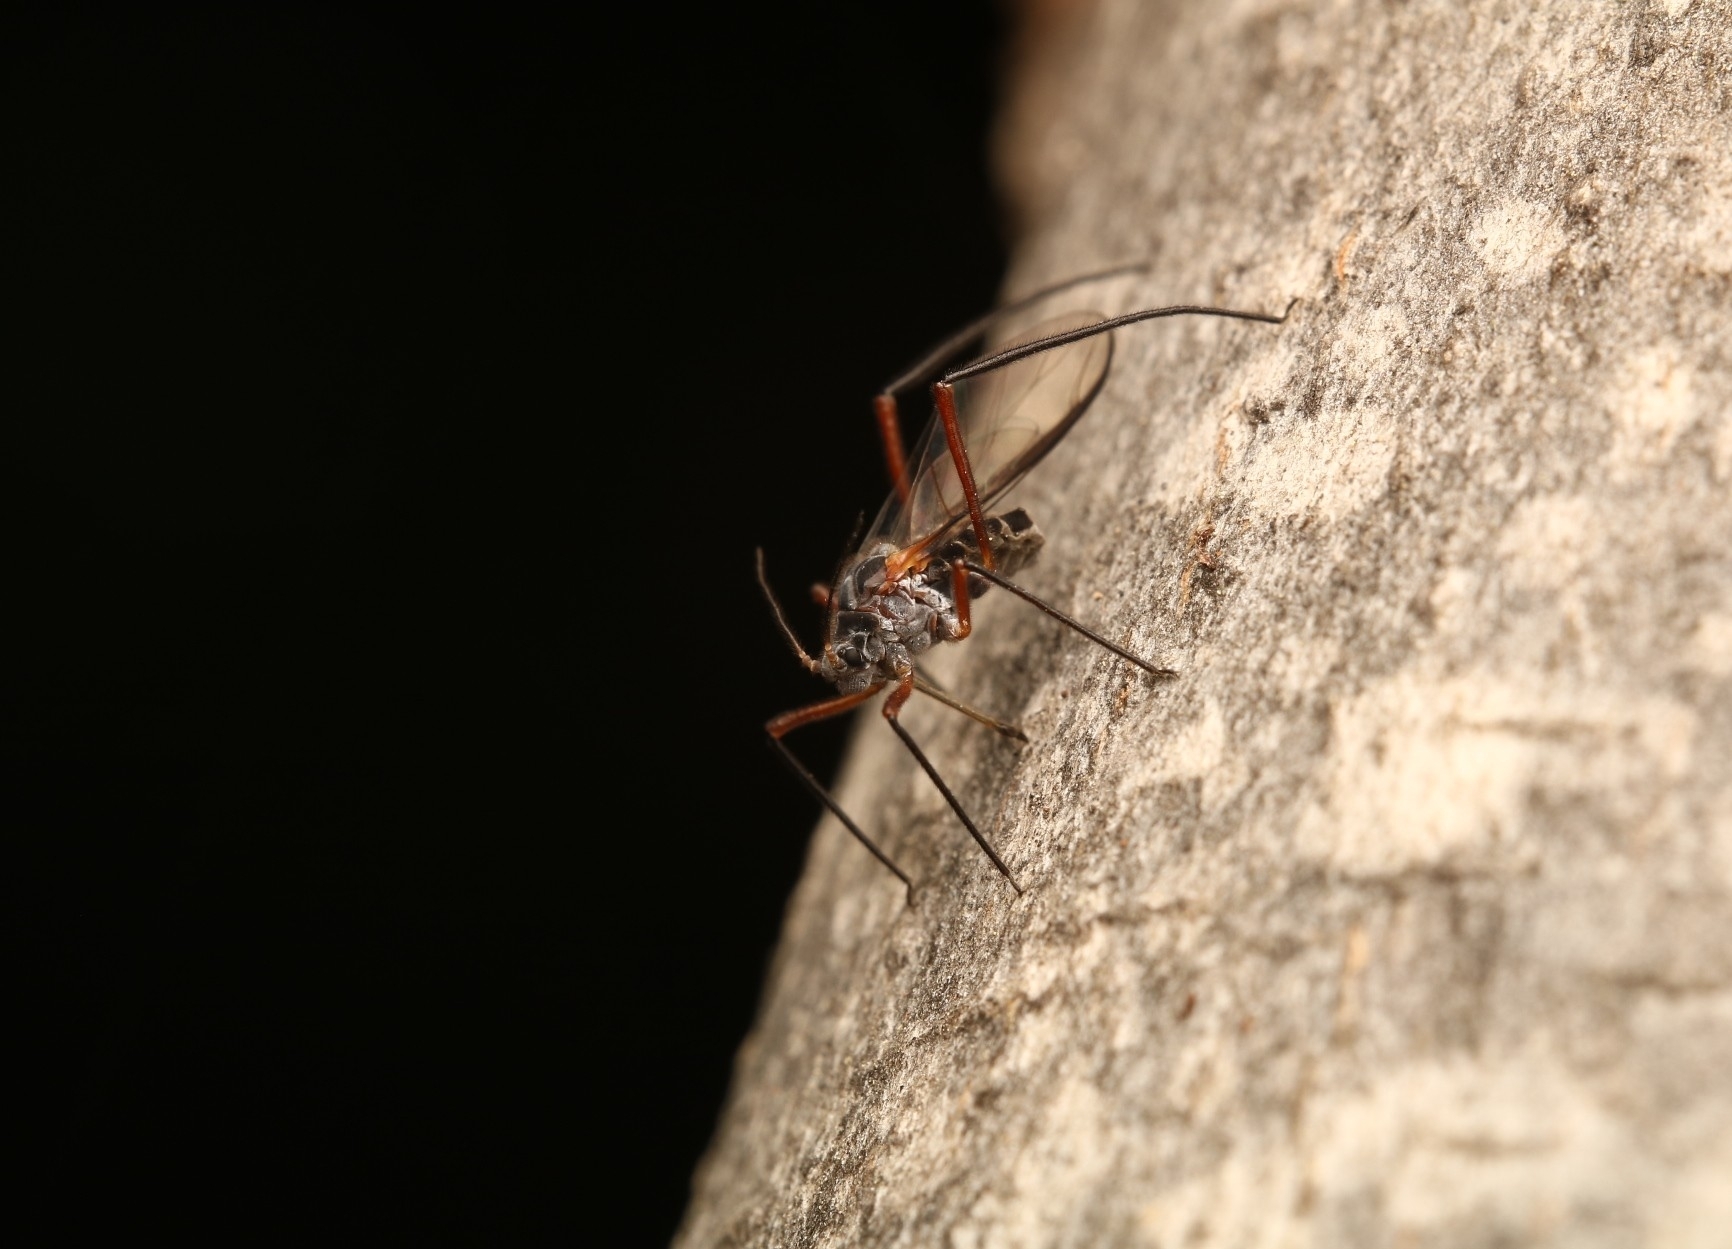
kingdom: Animalia
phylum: Arthropoda
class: Insecta
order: Hemiptera
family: Aphididae
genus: Longistigma
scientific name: Longistigma caryae
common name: Giant bark aphid
